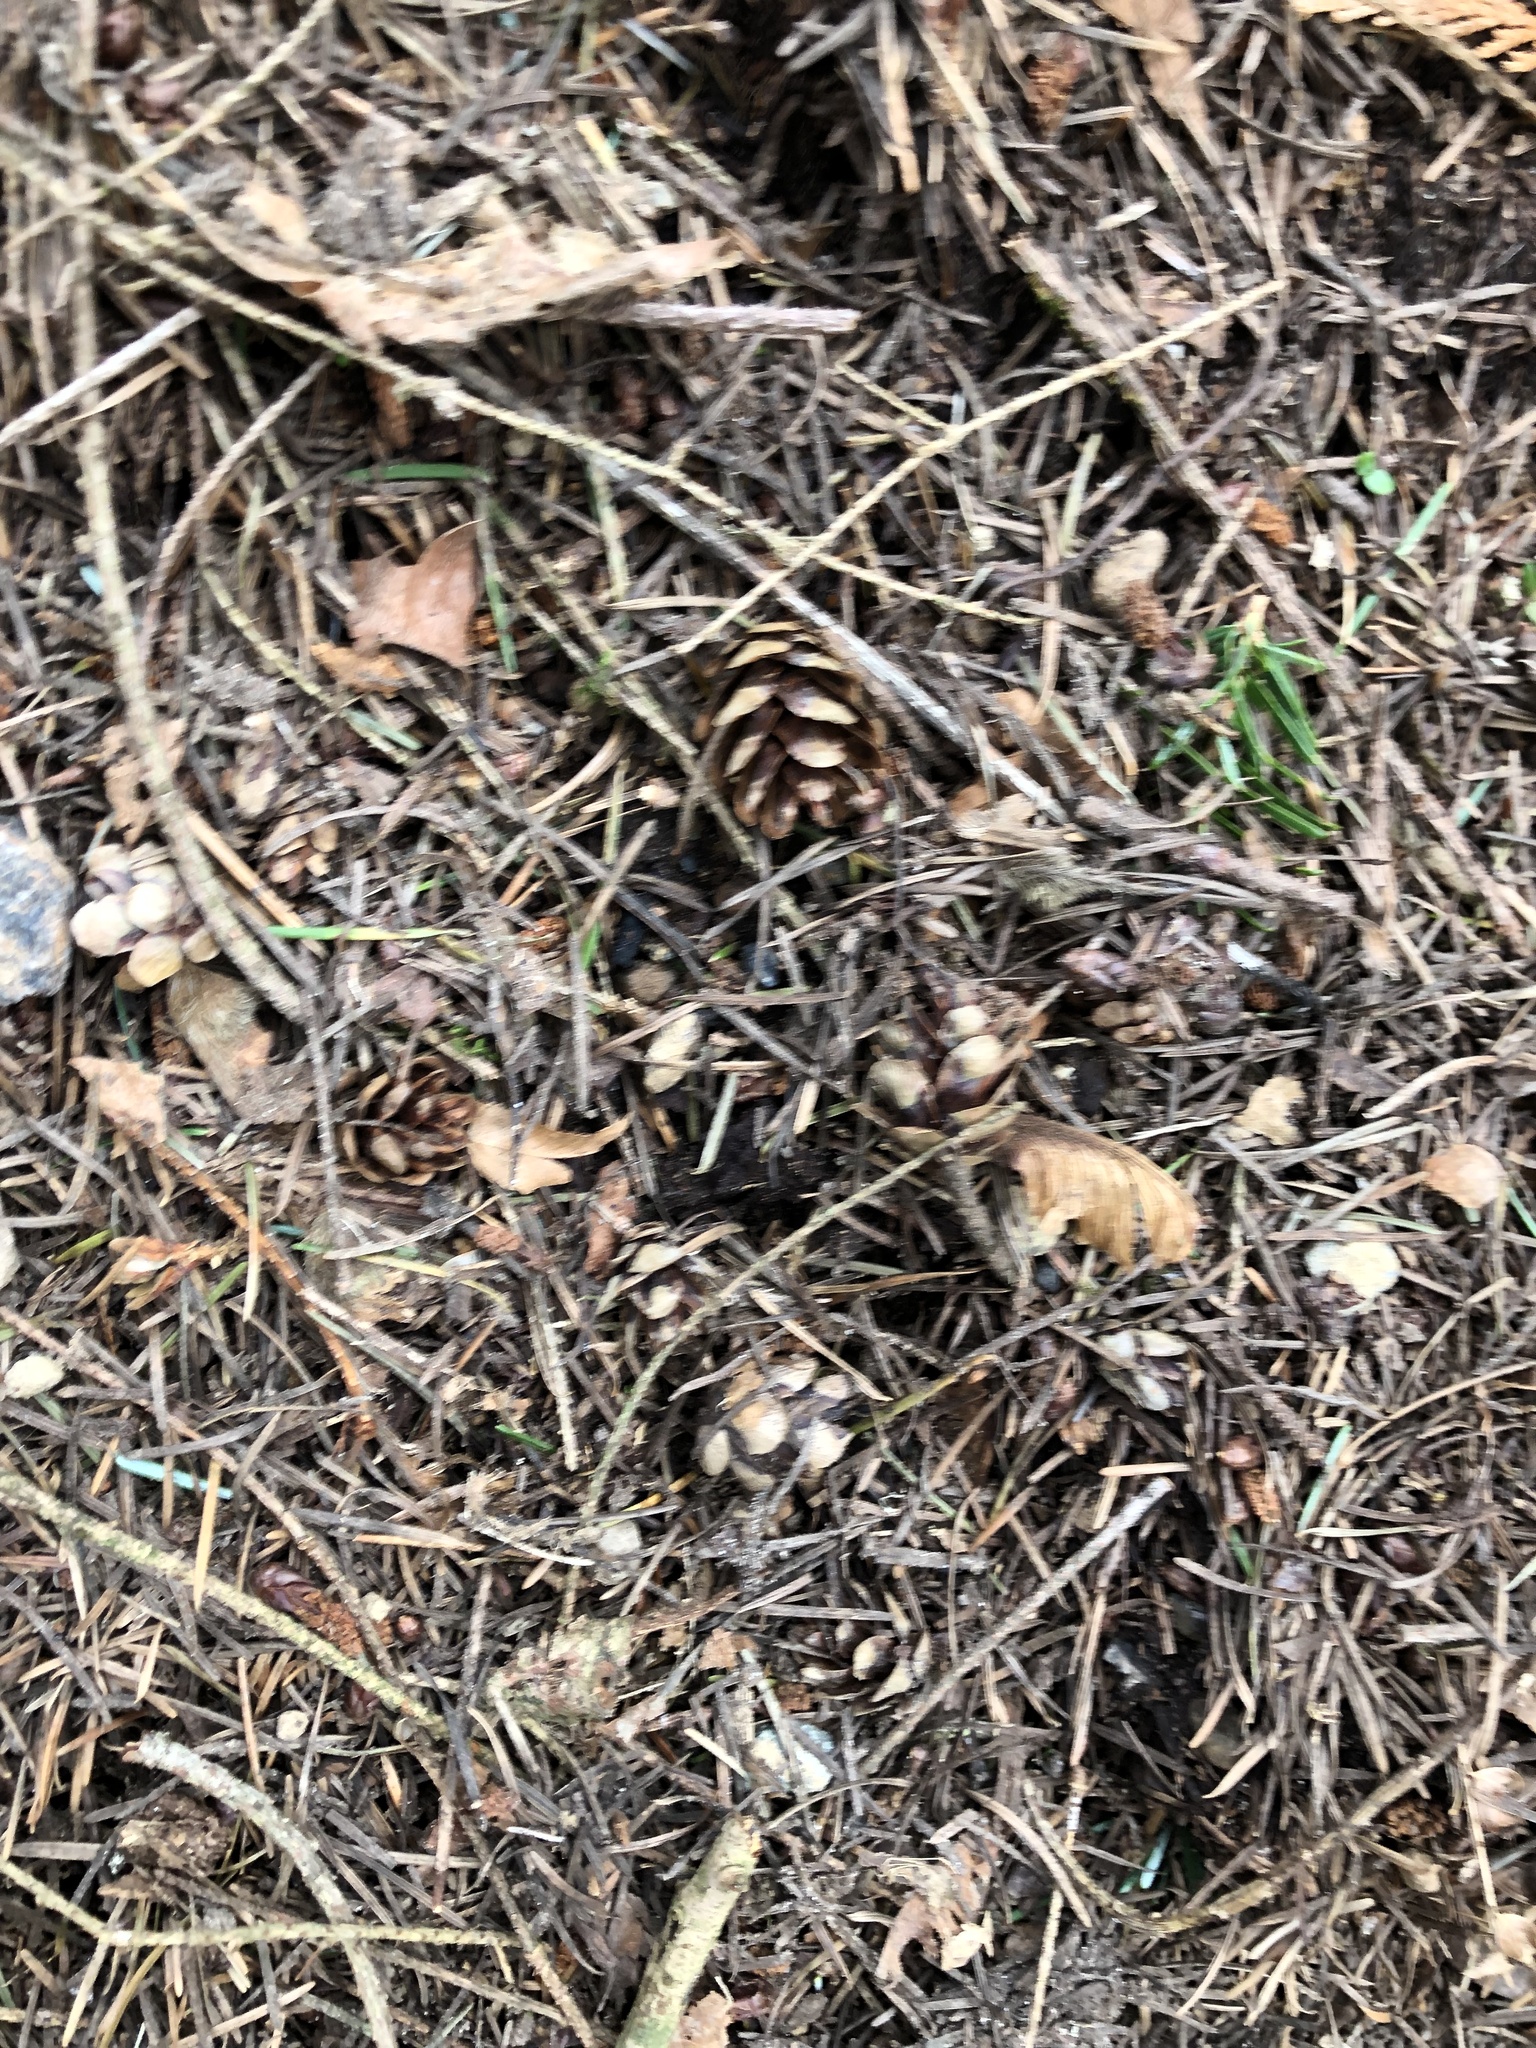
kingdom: Plantae
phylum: Tracheophyta
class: Pinopsida
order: Pinales
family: Pinaceae
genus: Tsuga
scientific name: Tsuga heterophylla
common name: Western hemlock
